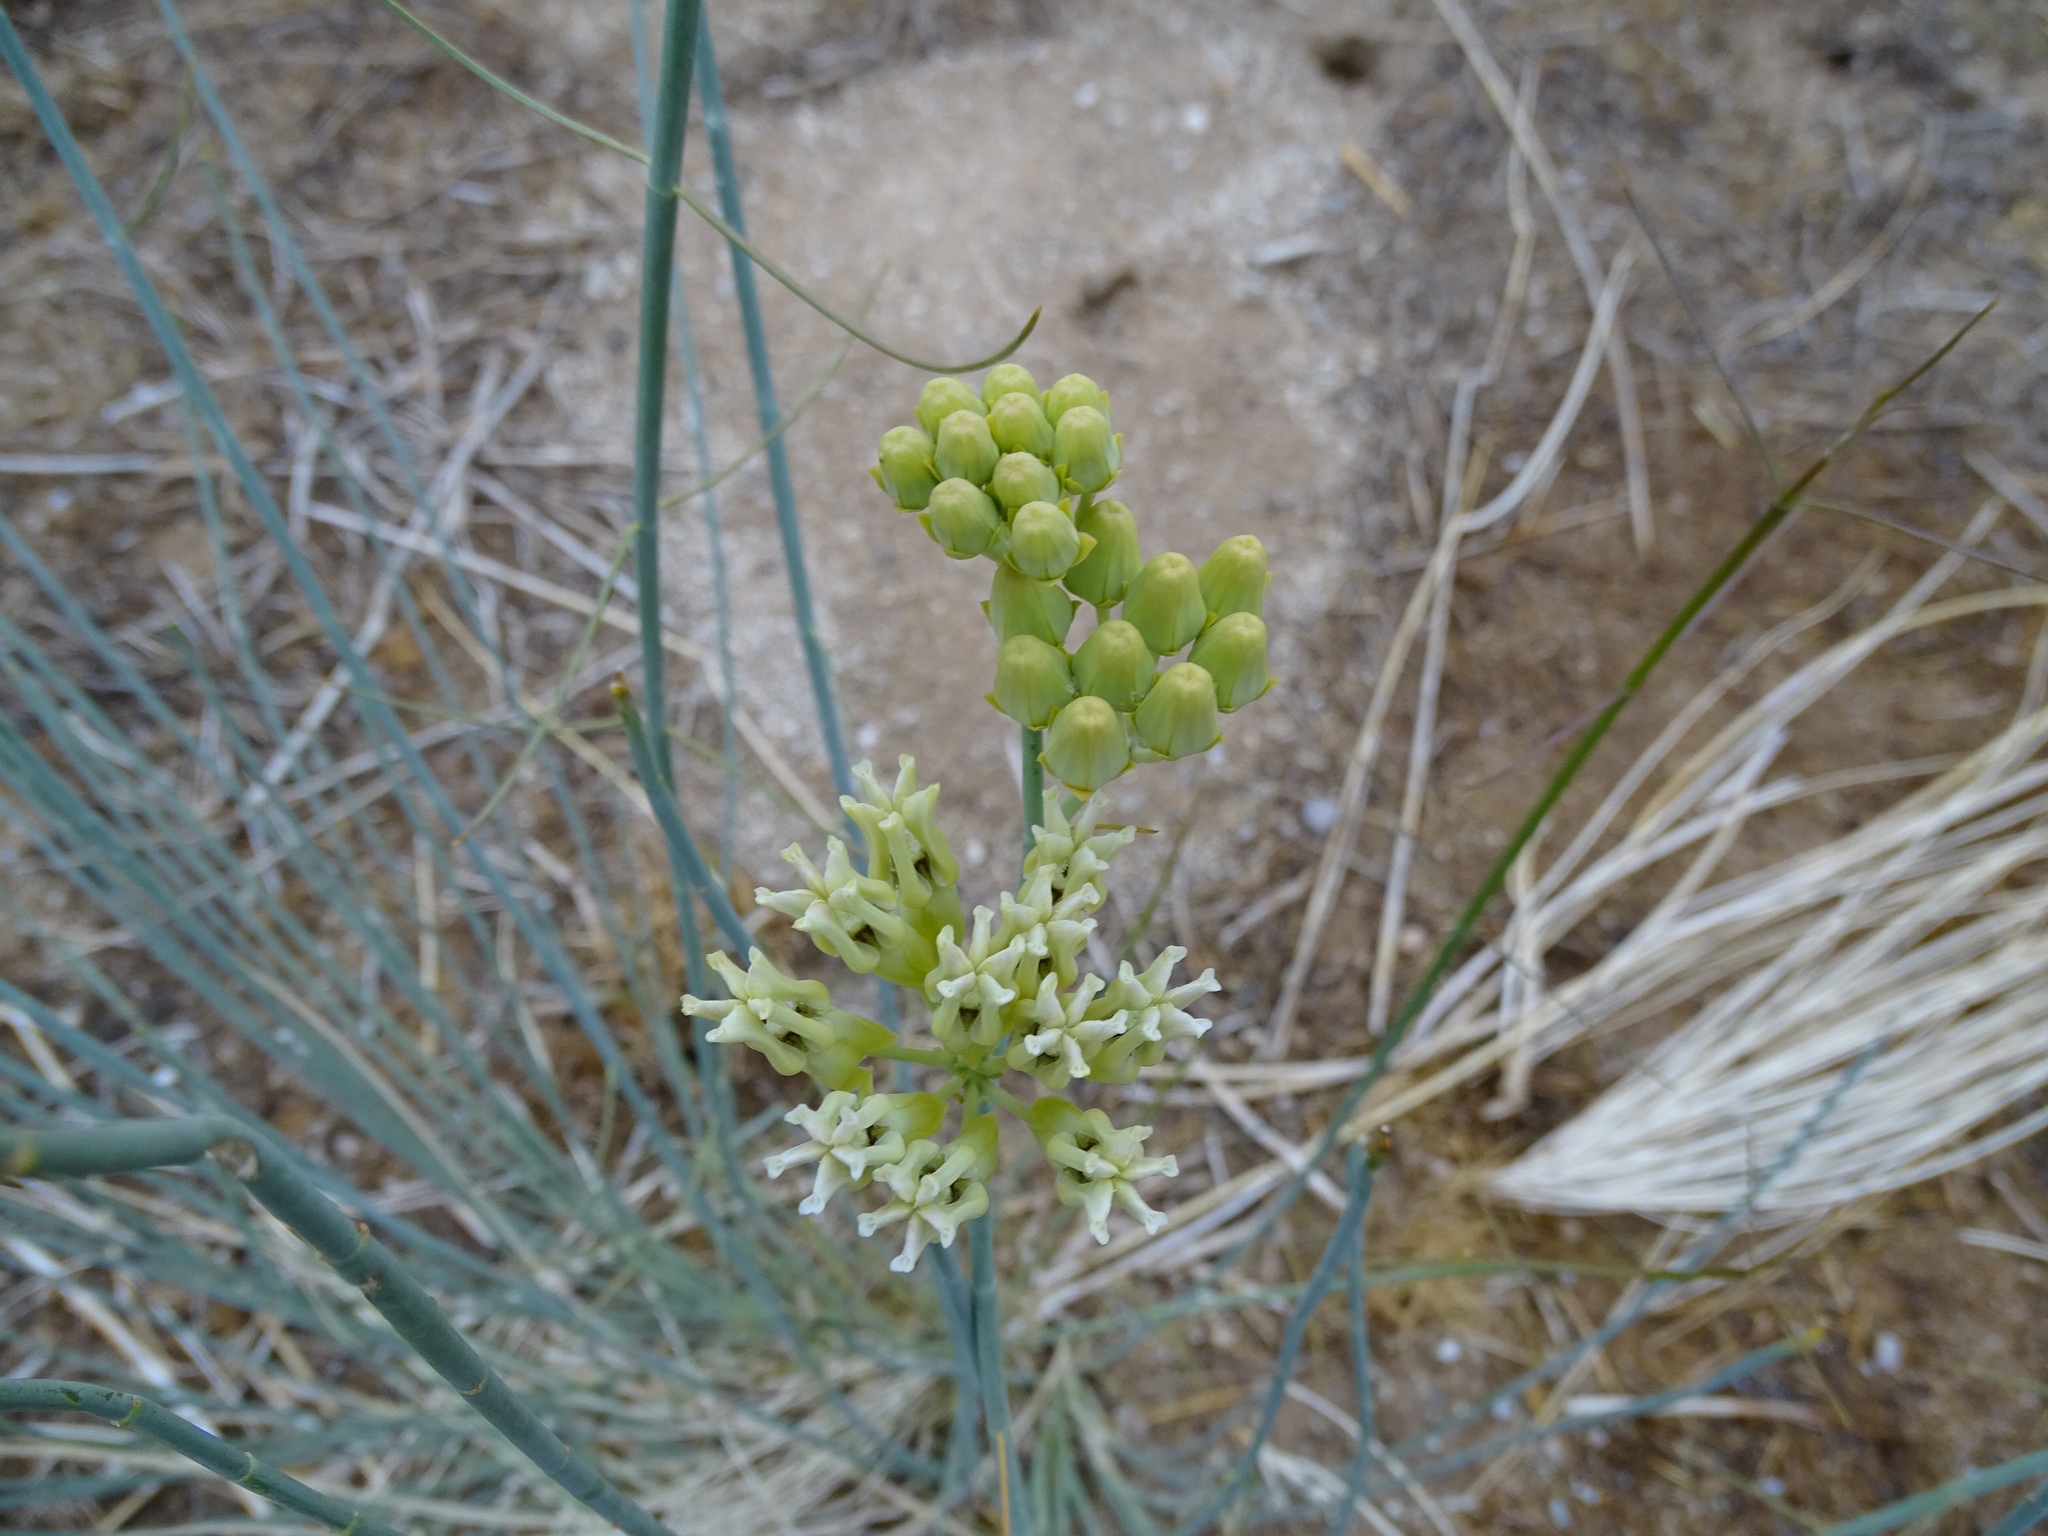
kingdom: Plantae
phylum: Tracheophyta
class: Magnoliopsida
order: Gentianales
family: Apocynaceae
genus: Asclepias
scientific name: Asclepias subulata
